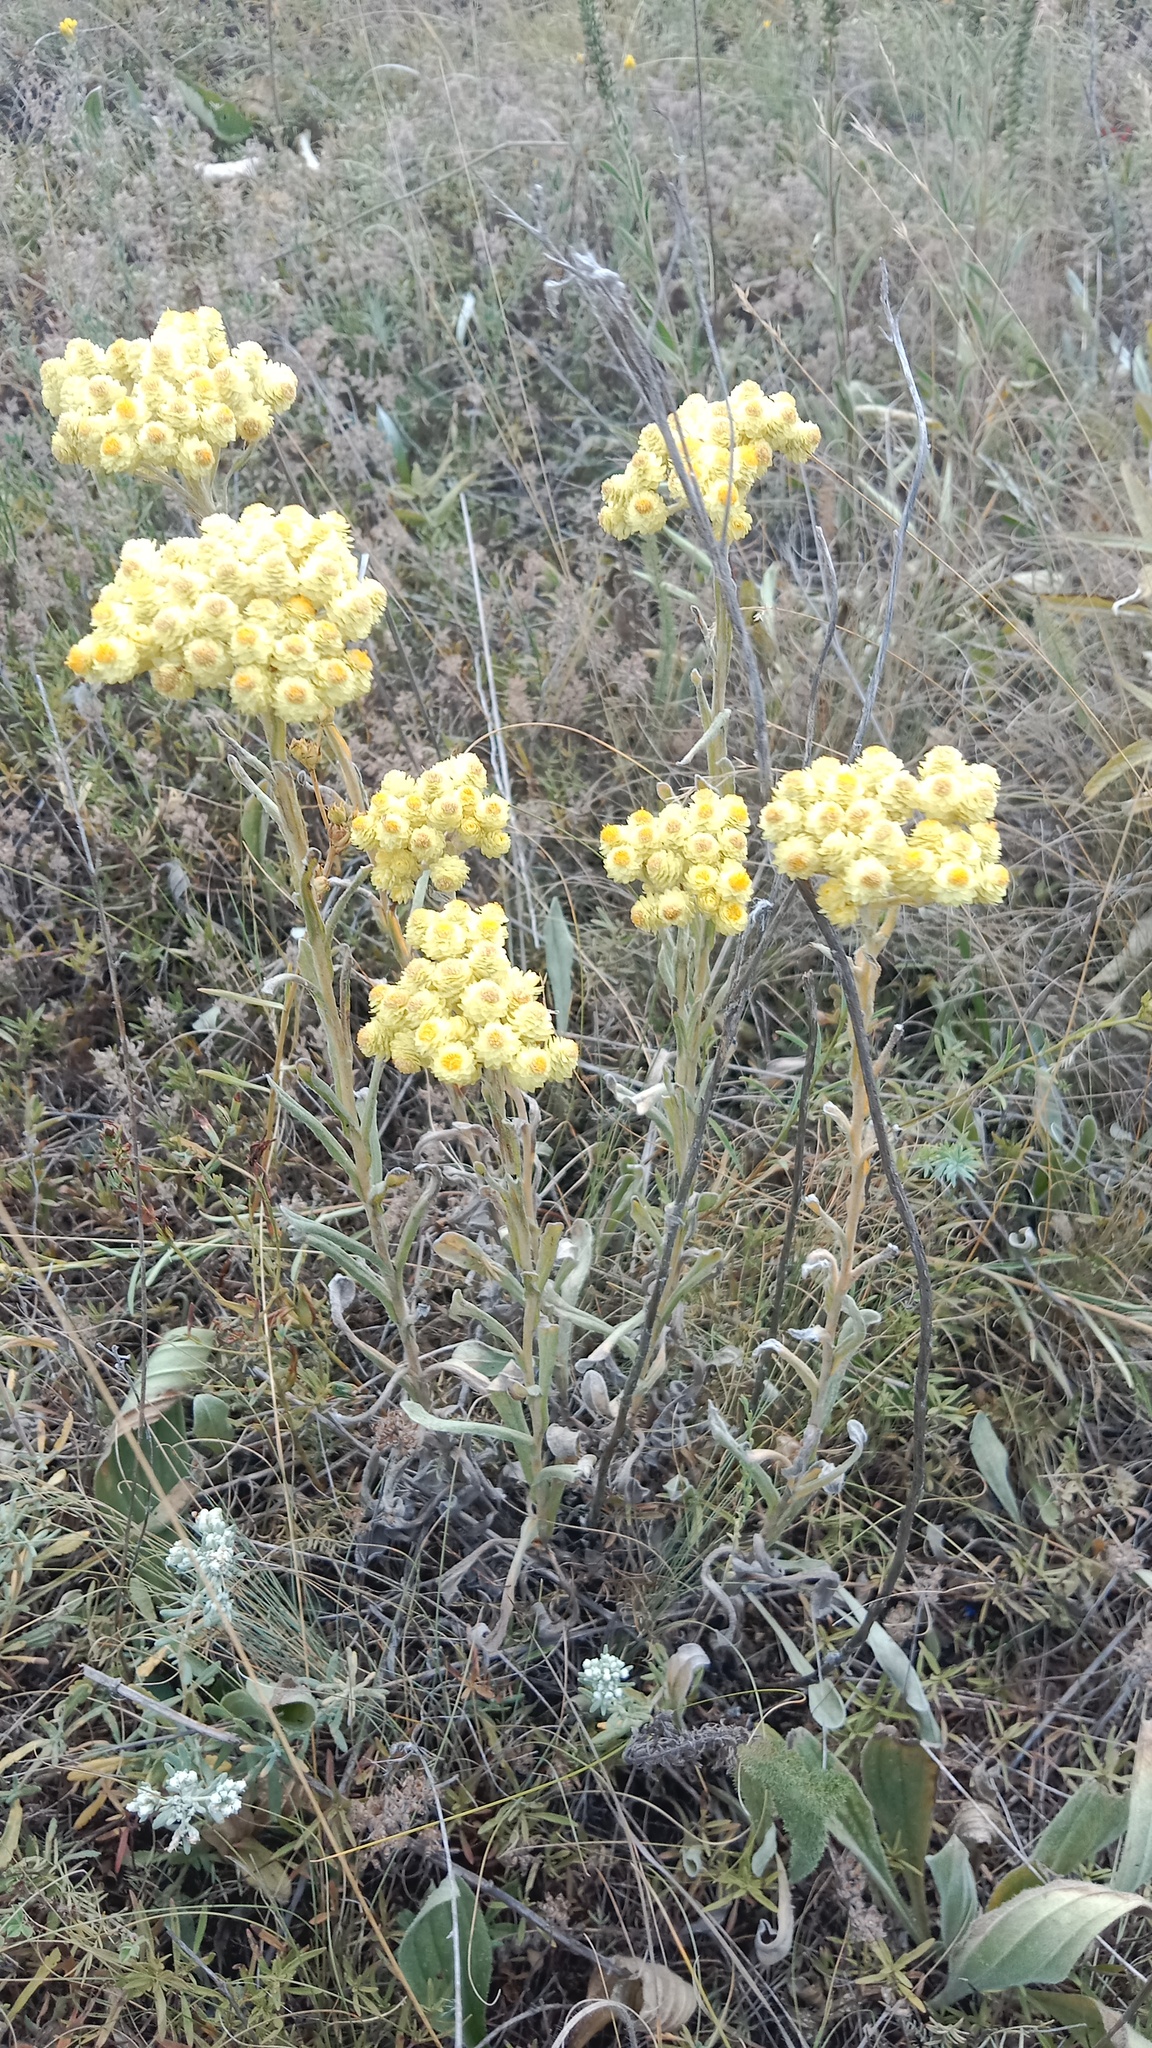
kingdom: Plantae
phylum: Tracheophyta
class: Magnoliopsida
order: Asterales
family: Asteraceae
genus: Helichrysum
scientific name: Helichrysum arenarium
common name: Strawflower
